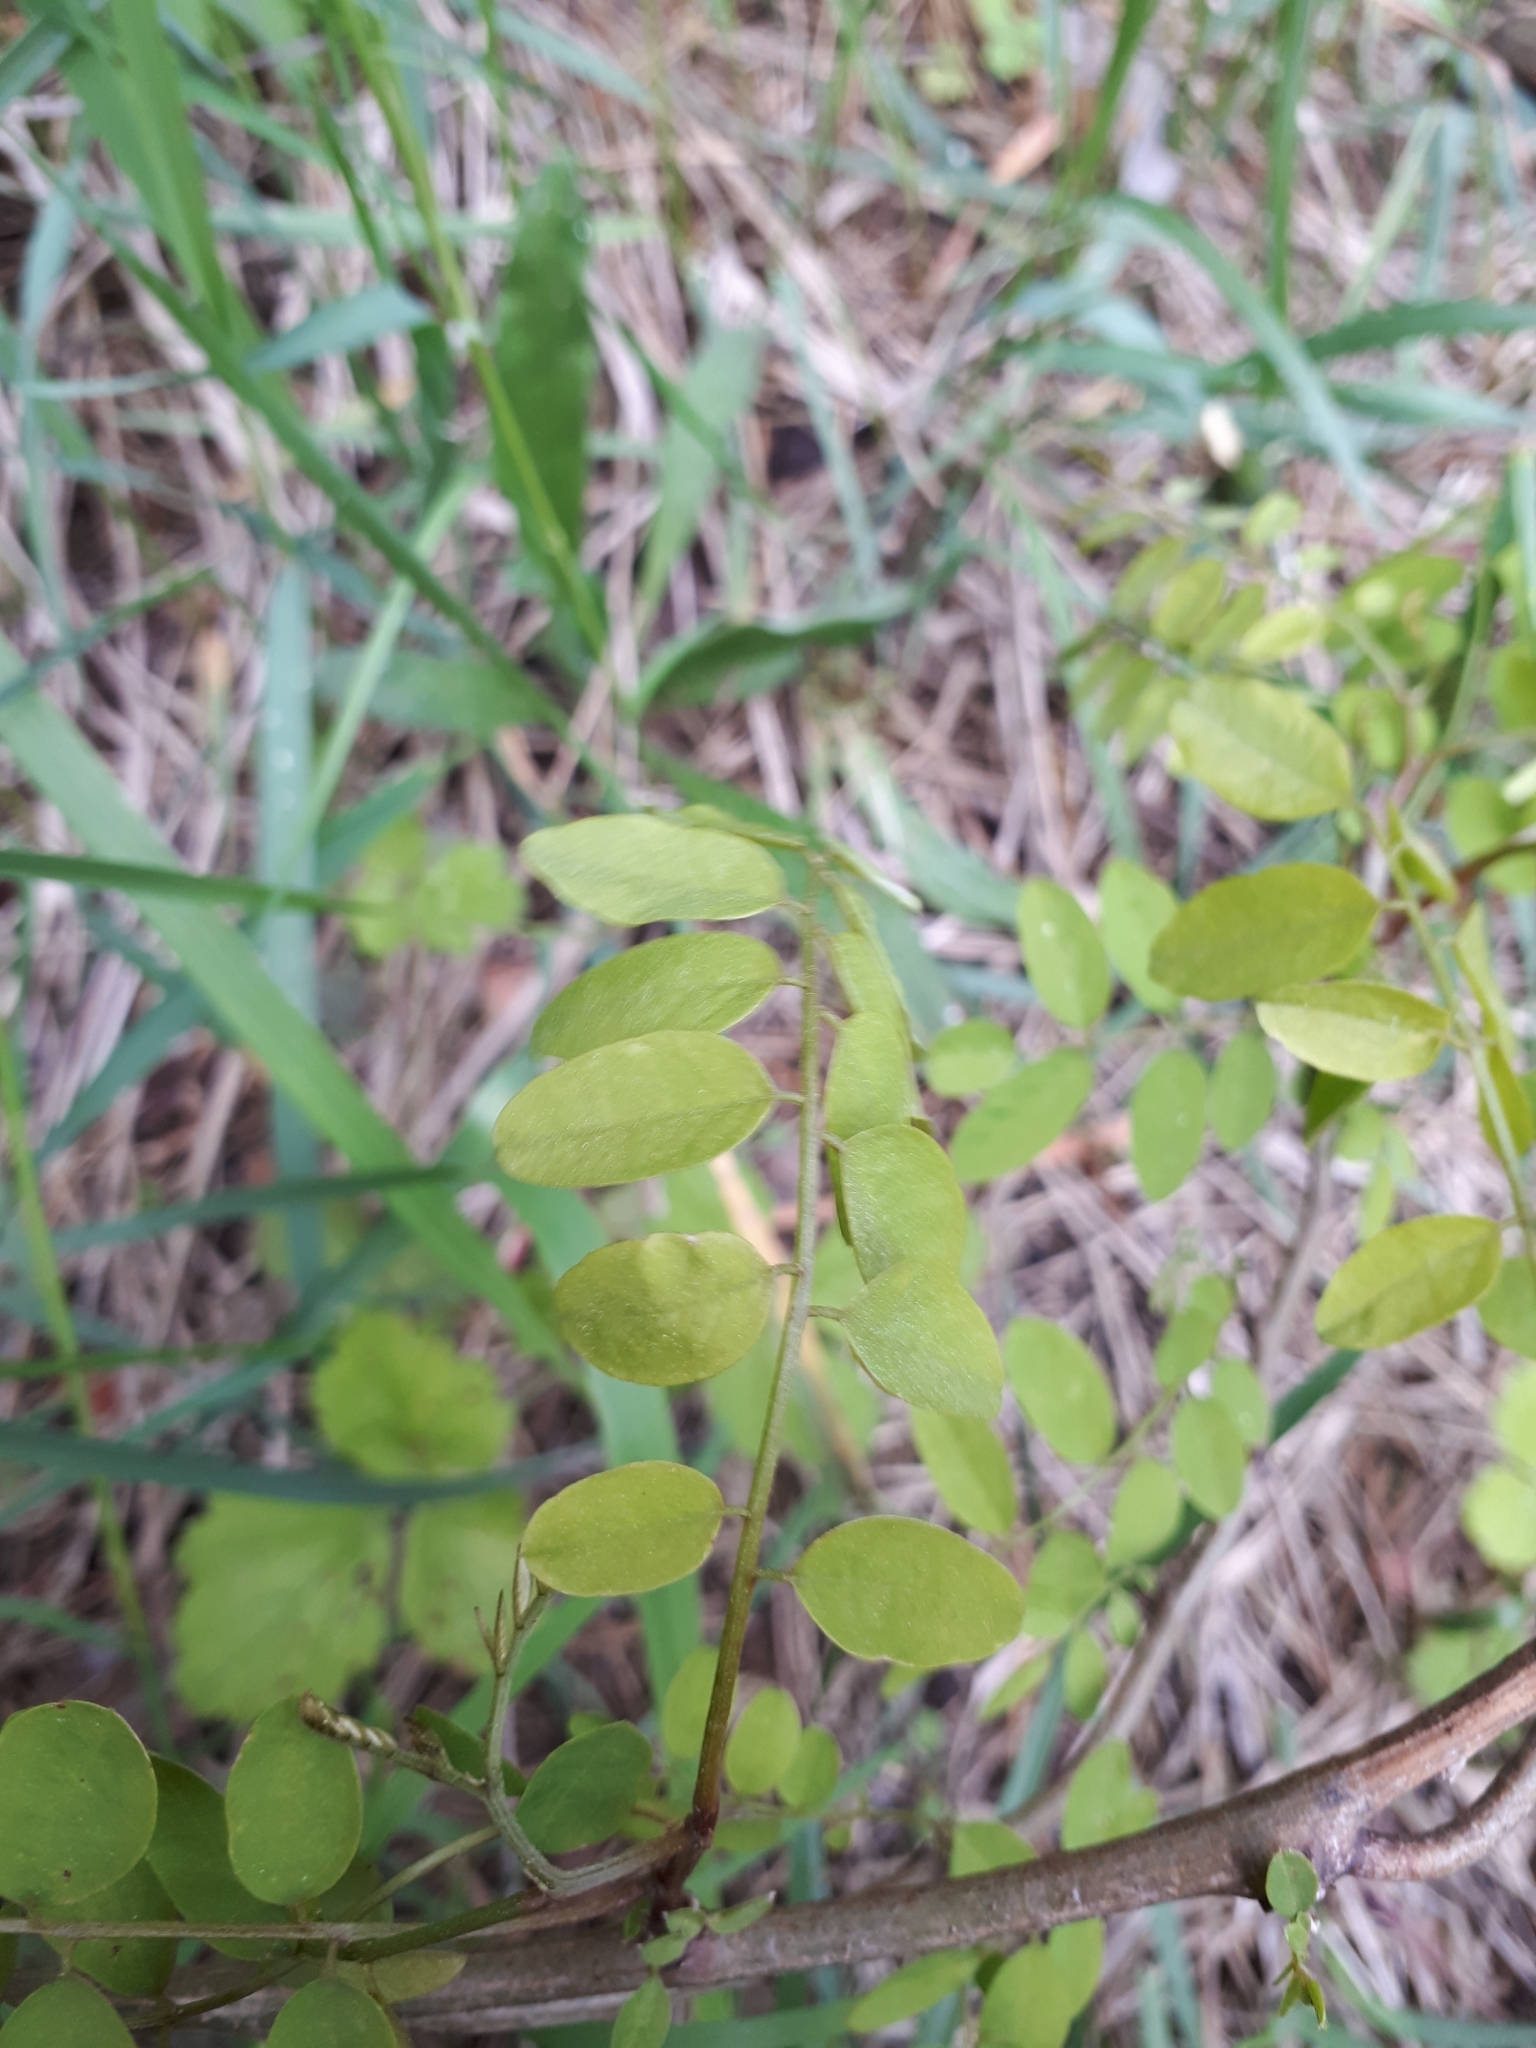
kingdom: Plantae
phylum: Tracheophyta
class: Magnoliopsida
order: Fabales
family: Fabaceae
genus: Robinia
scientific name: Robinia pseudoacacia
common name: Black locust
